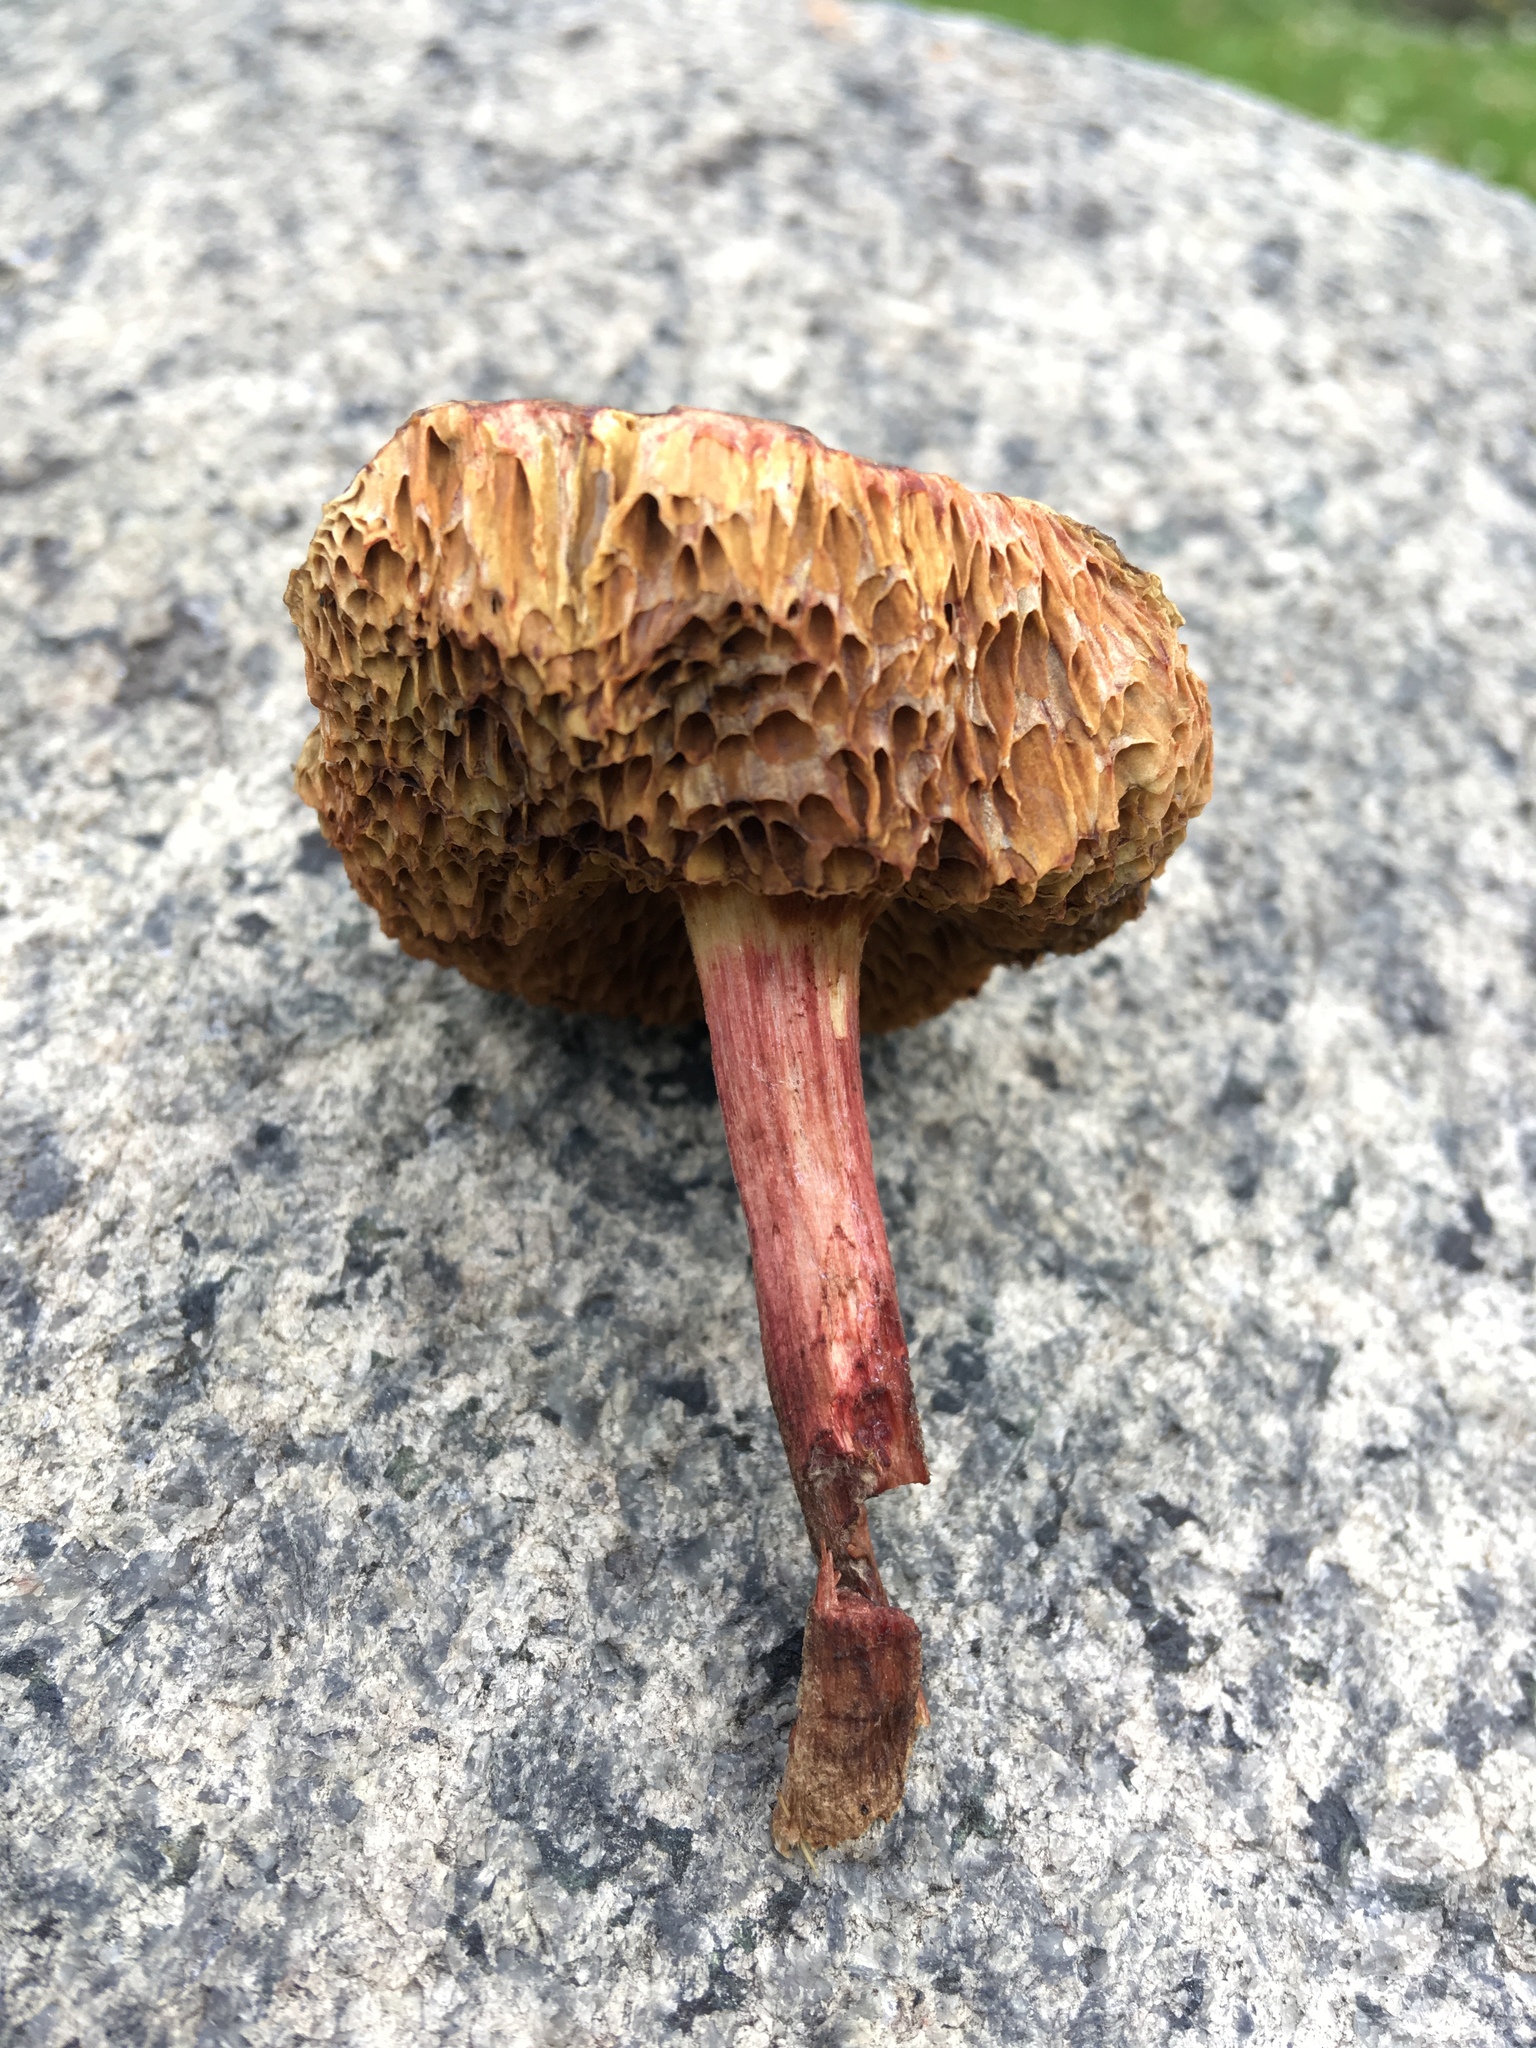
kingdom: Fungi
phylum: Basidiomycota
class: Agaricomycetes
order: Boletales
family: Boletaceae
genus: Xerocomellus
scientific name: Xerocomellus chrysenteron
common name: Red-cracking bolete
